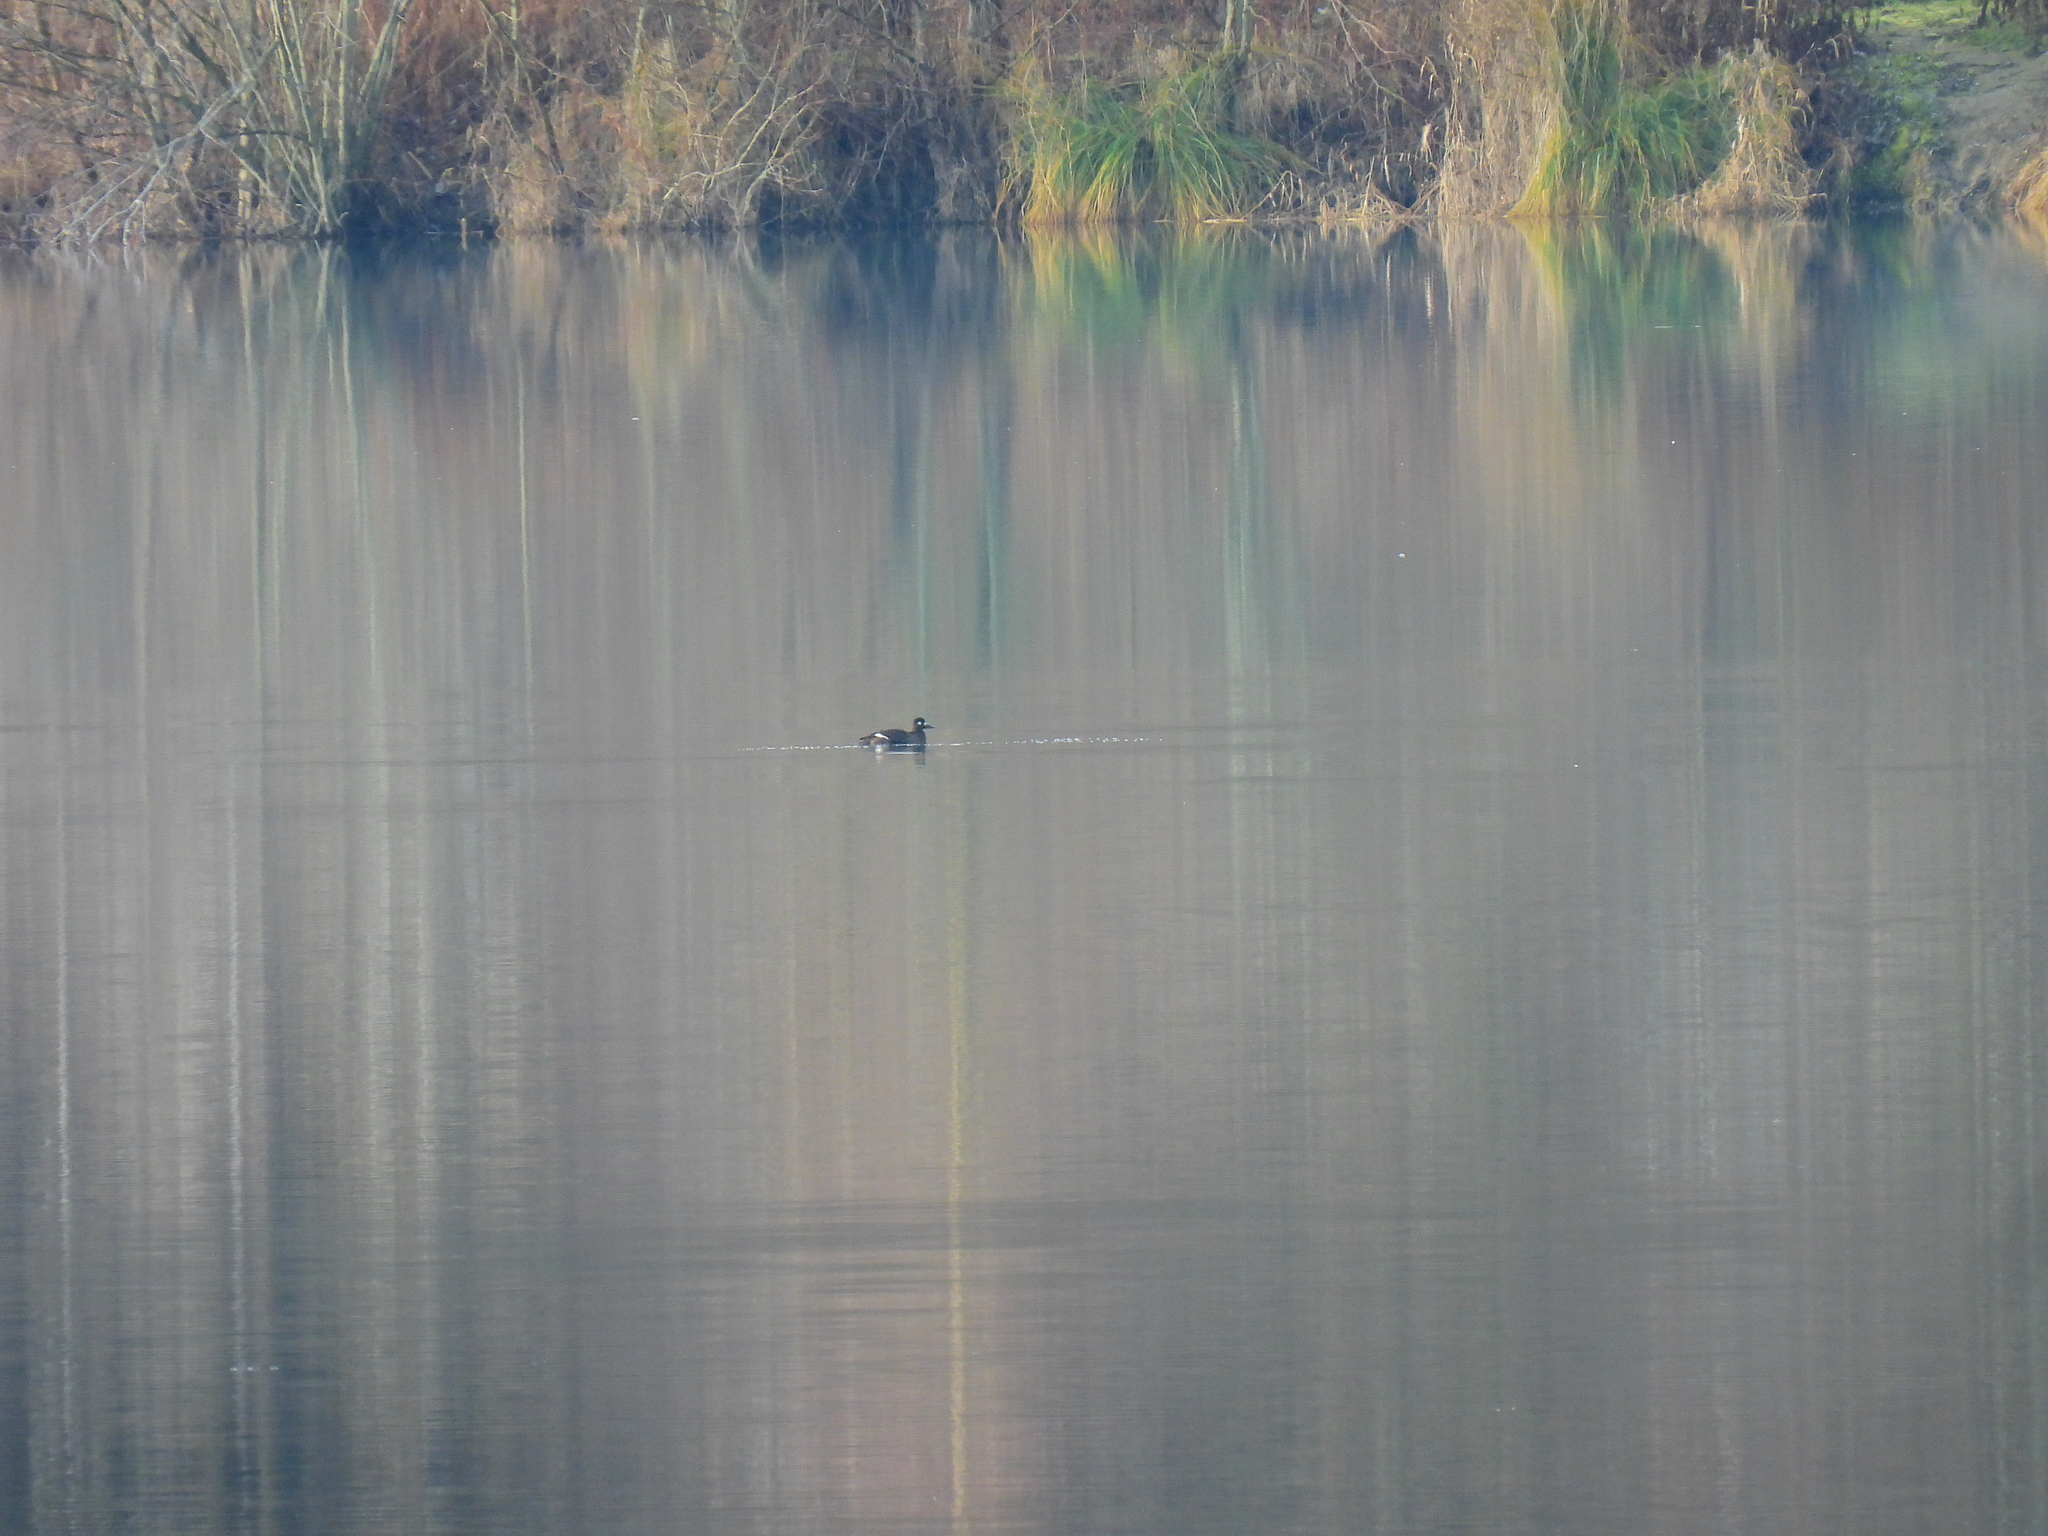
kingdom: Animalia
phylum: Chordata
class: Aves
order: Anseriformes
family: Anatidae
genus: Melanitta
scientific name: Melanitta fusca
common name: Velvet scoter
